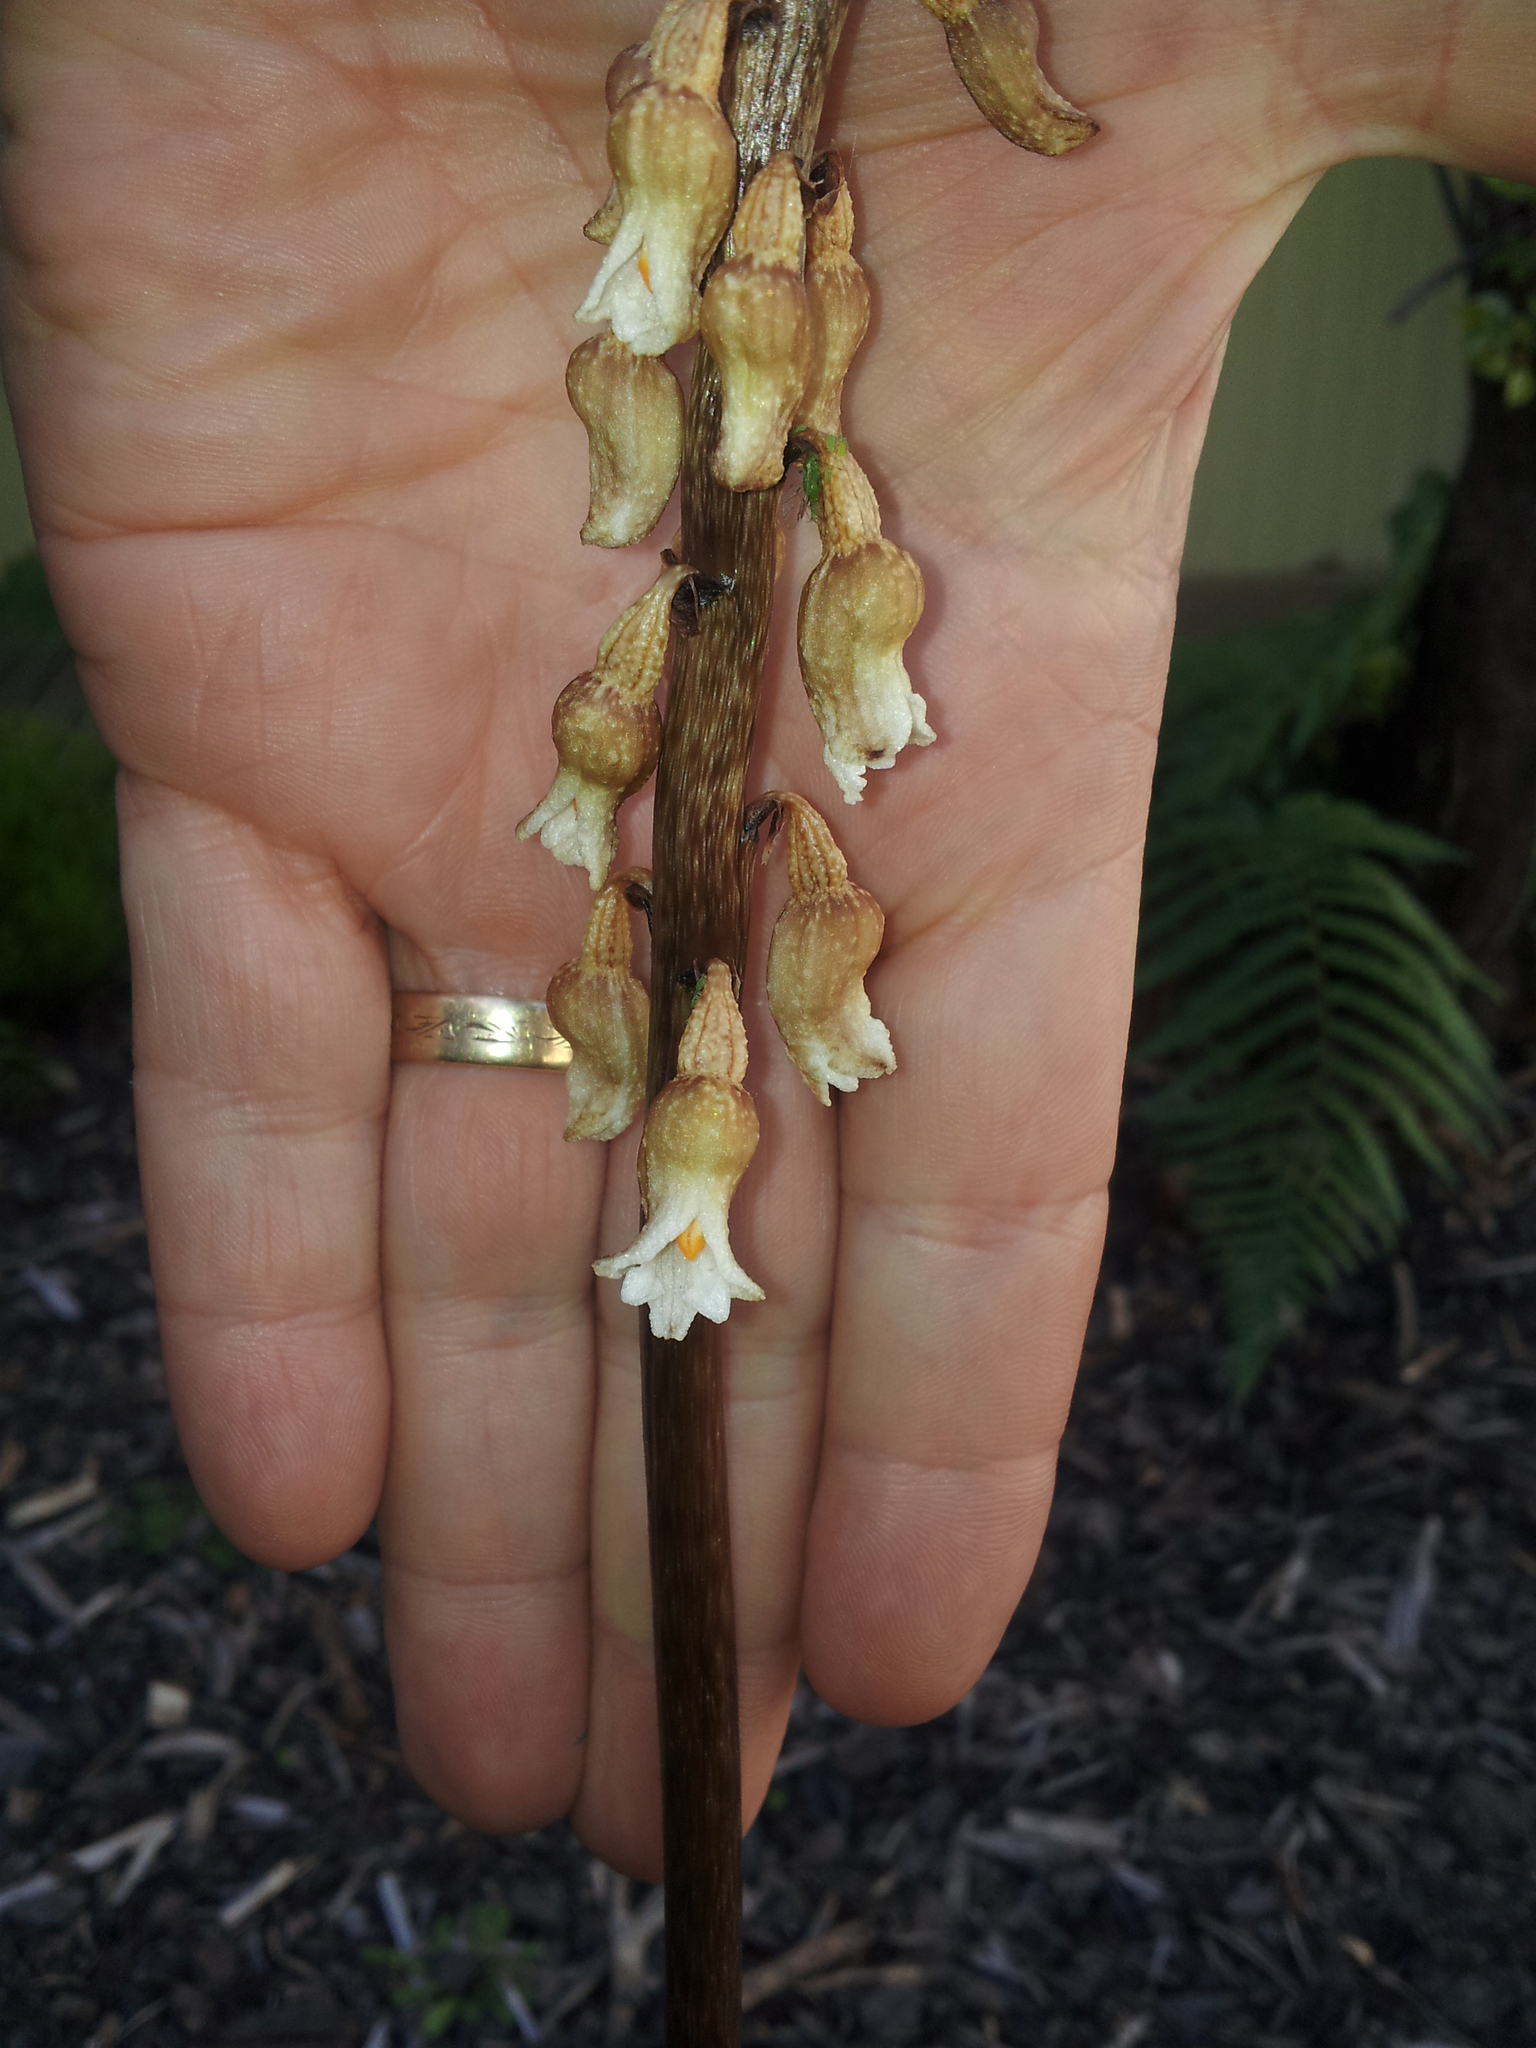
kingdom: Plantae
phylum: Tracheophyta
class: Liliopsida
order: Asparagales
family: Orchidaceae
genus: Gastrodia
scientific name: Gastrodia sesamoides
